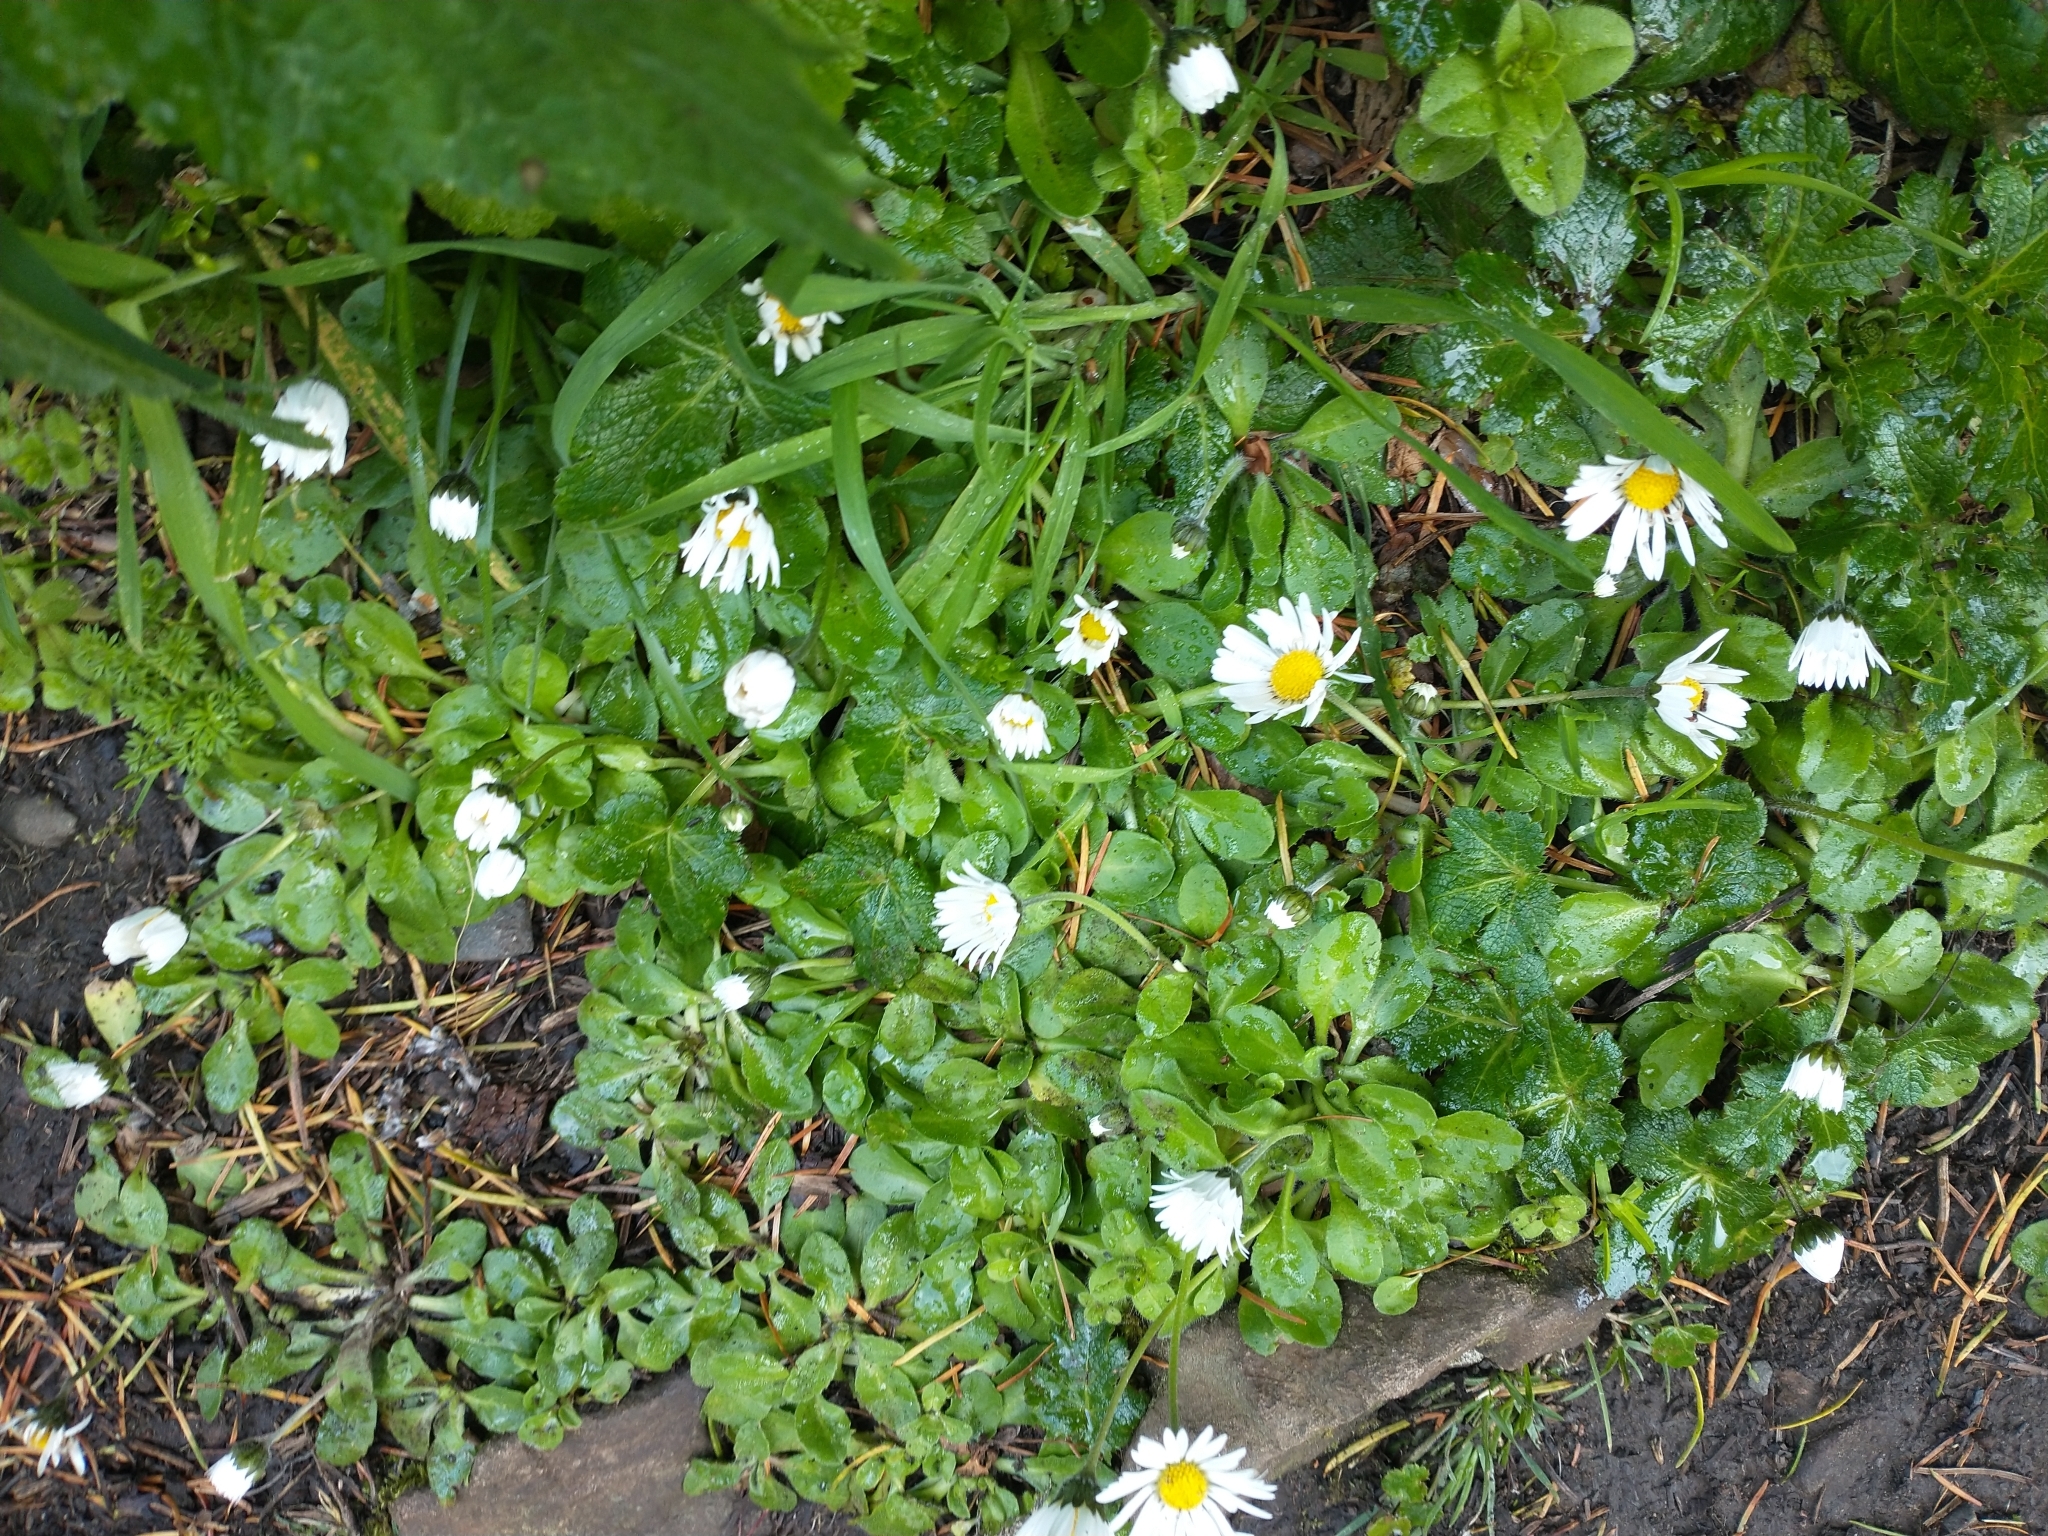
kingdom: Plantae
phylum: Tracheophyta
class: Magnoliopsida
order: Asterales
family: Asteraceae
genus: Bellis
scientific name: Bellis perennis
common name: Lawndaisy
